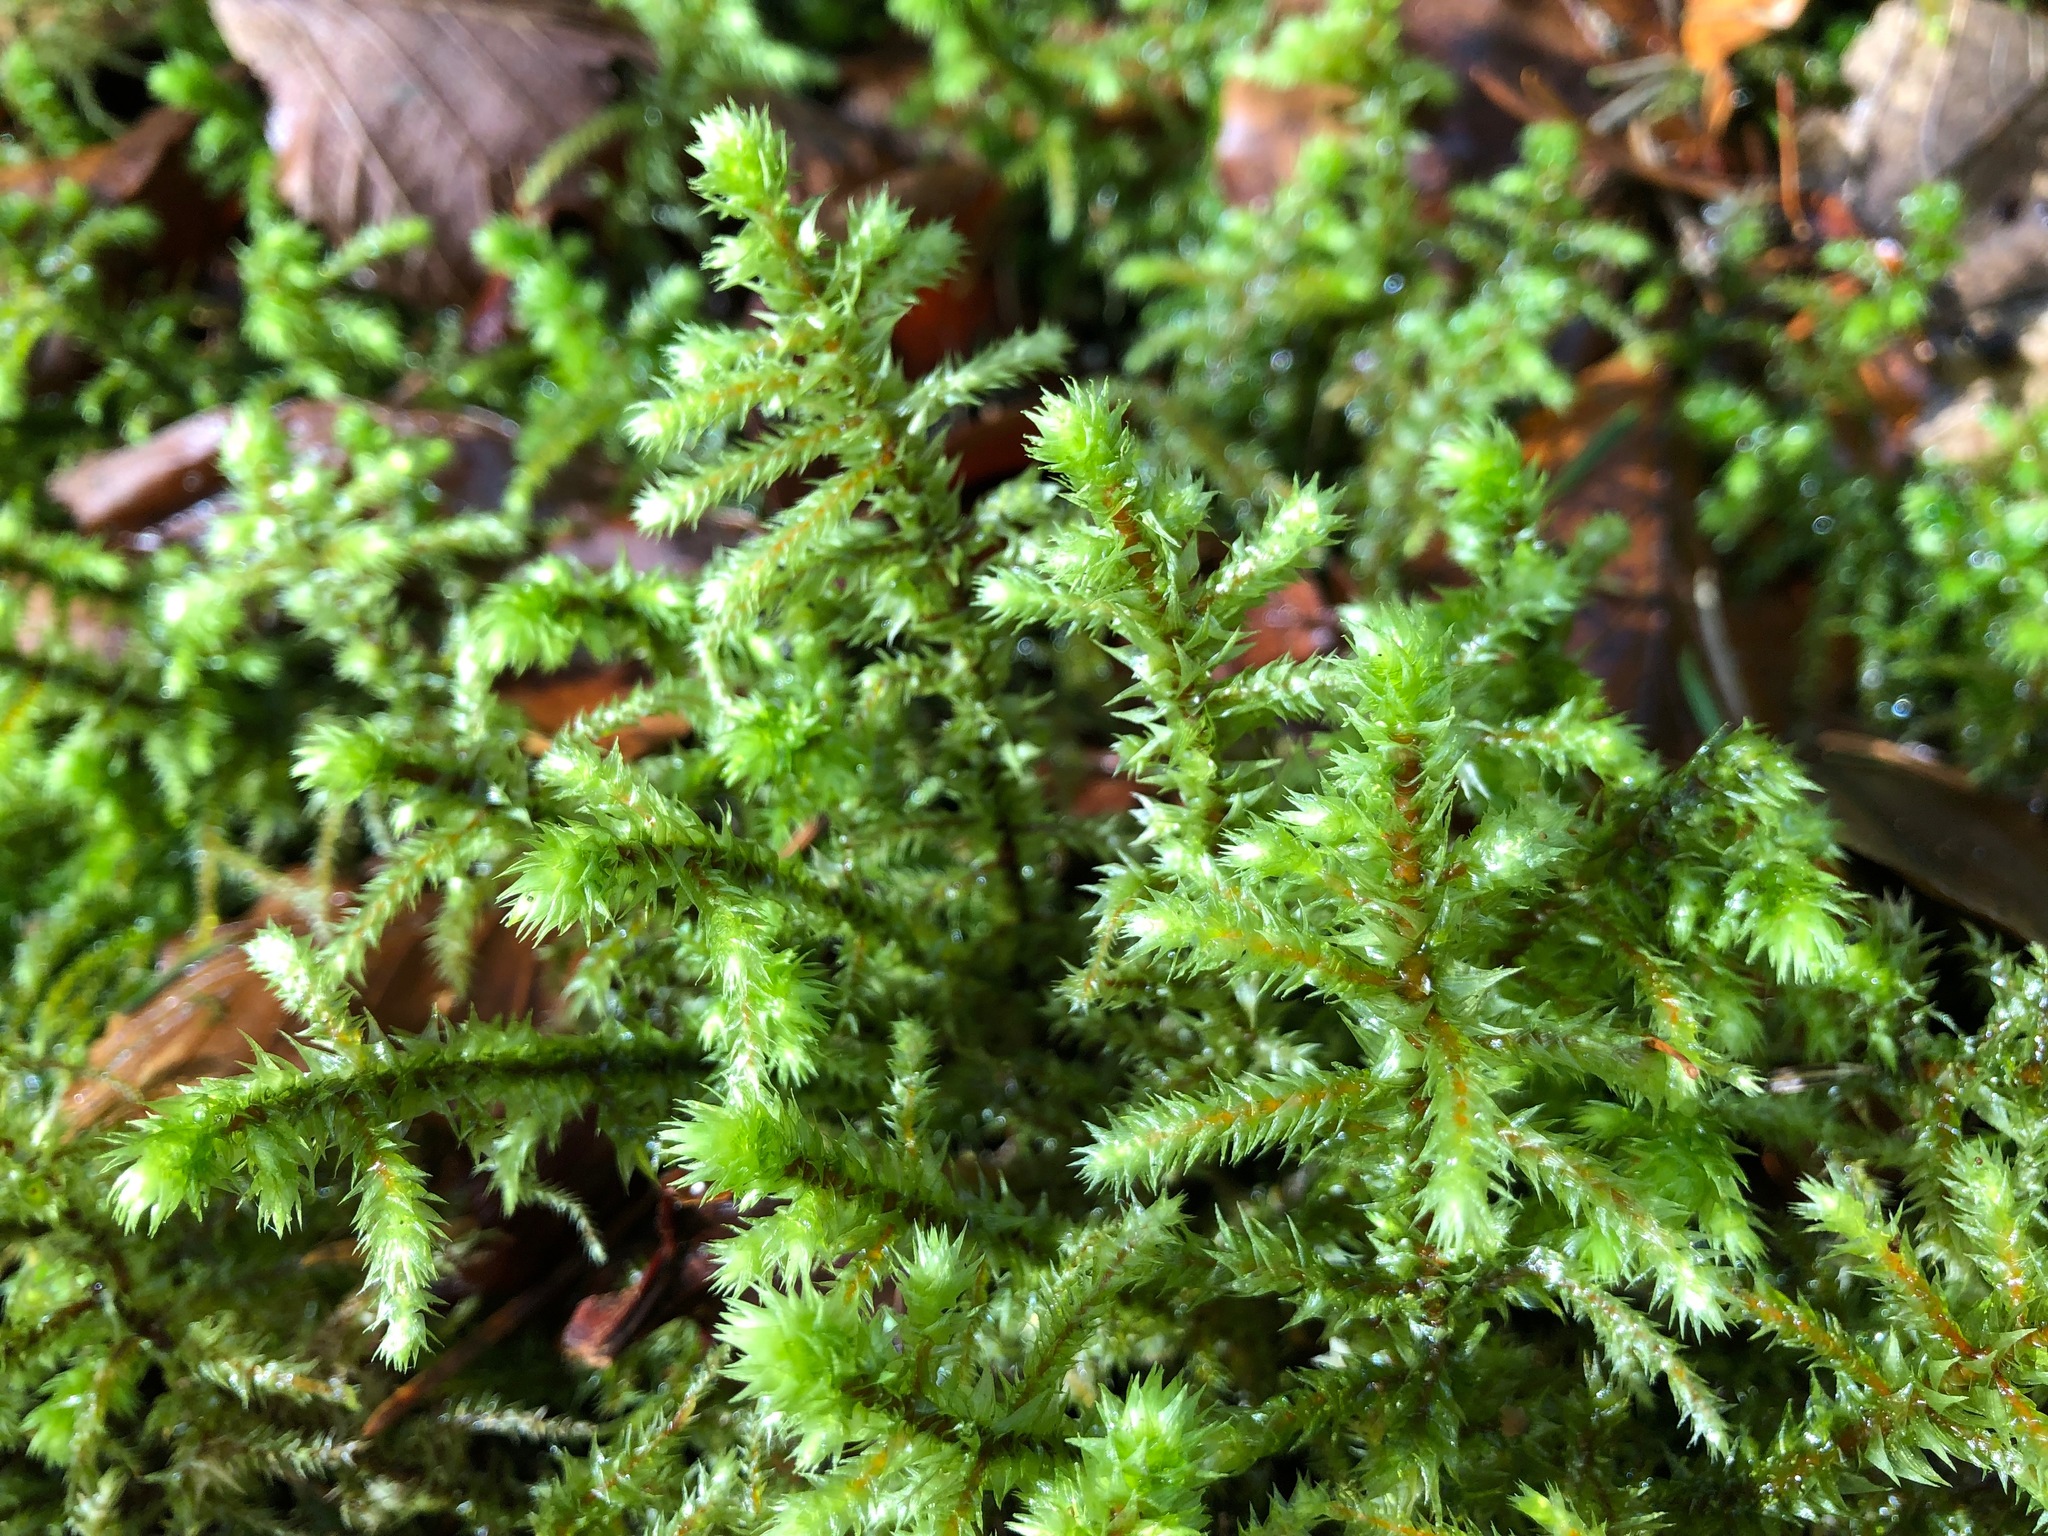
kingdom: Plantae
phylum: Bryophyta
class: Bryopsida
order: Hypnales
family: Hylocomiaceae
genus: Hylocomiadelphus
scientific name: Hylocomiadelphus triquetrus
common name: Rough goose neck moss
